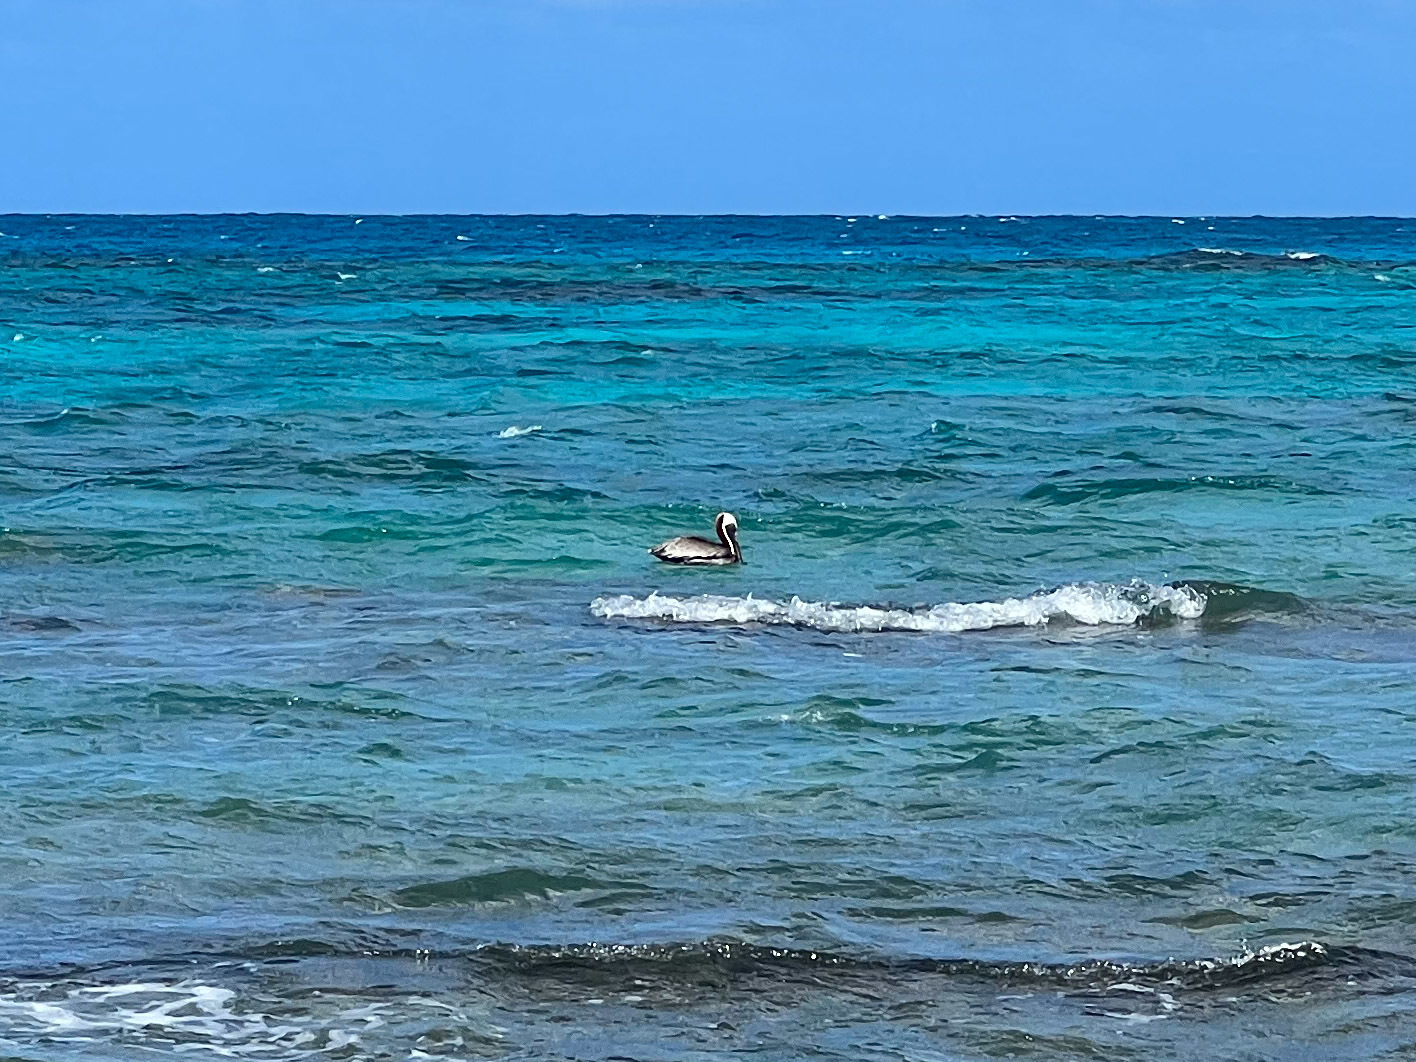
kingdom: Animalia
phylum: Chordata
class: Aves
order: Pelecaniformes
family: Pelecanidae
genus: Pelecanus
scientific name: Pelecanus occidentalis
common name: Brown pelican
